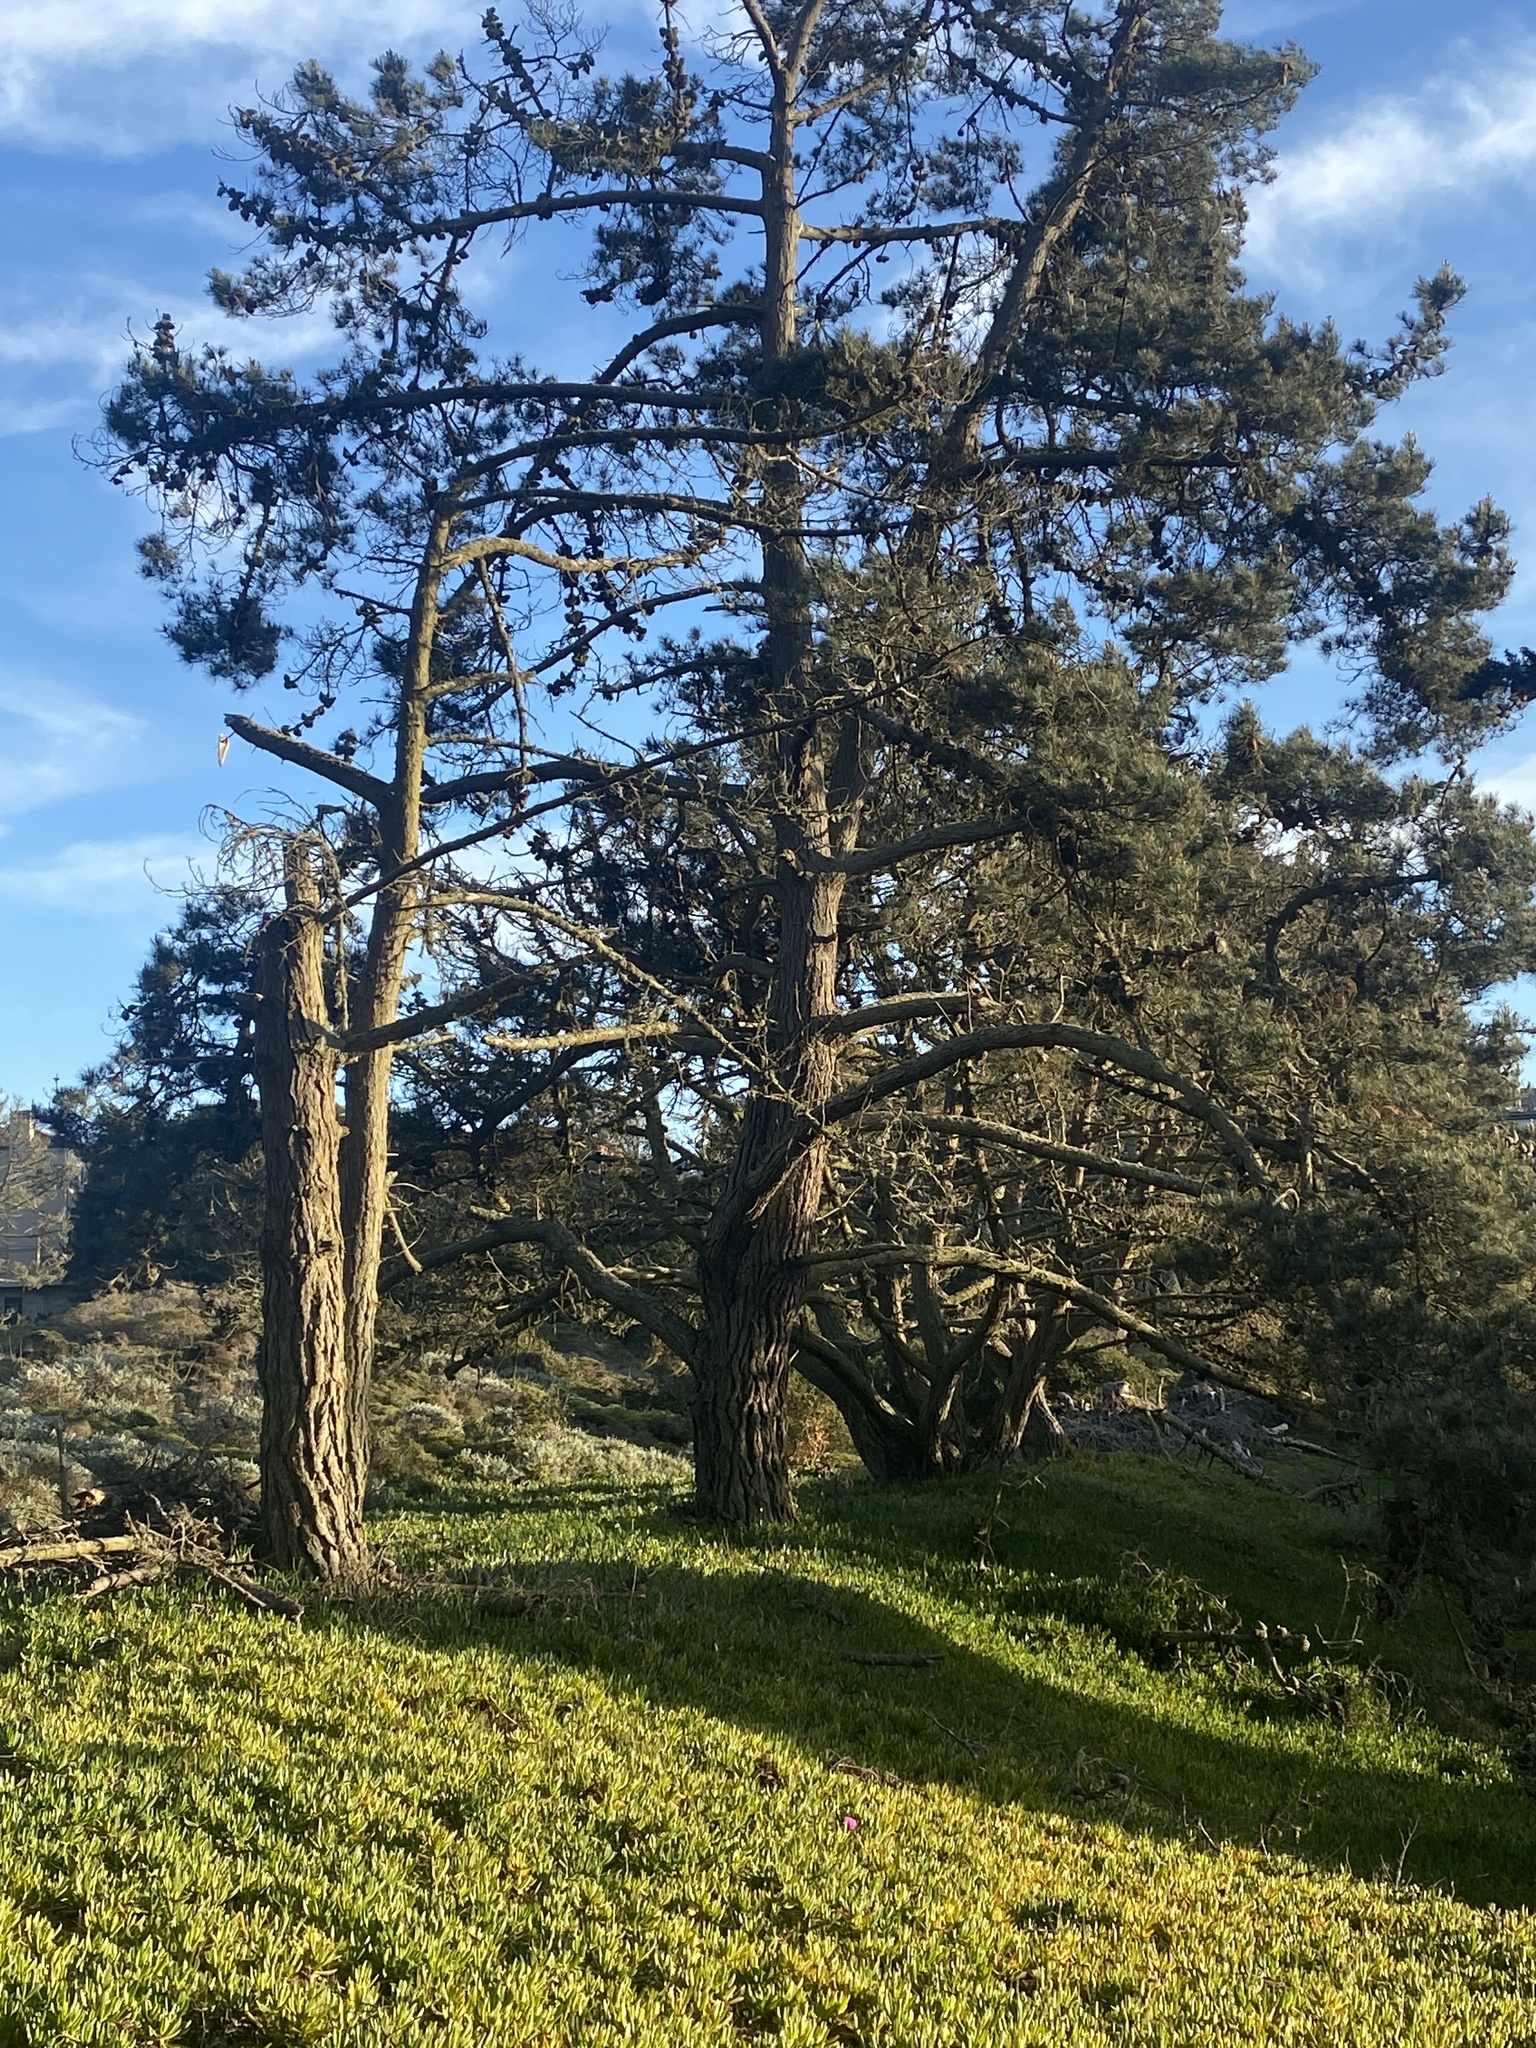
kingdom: Plantae
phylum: Tracheophyta
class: Pinopsida
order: Pinales
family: Pinaceae
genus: Pinus
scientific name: Pinus radiata
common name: Monterey pine
